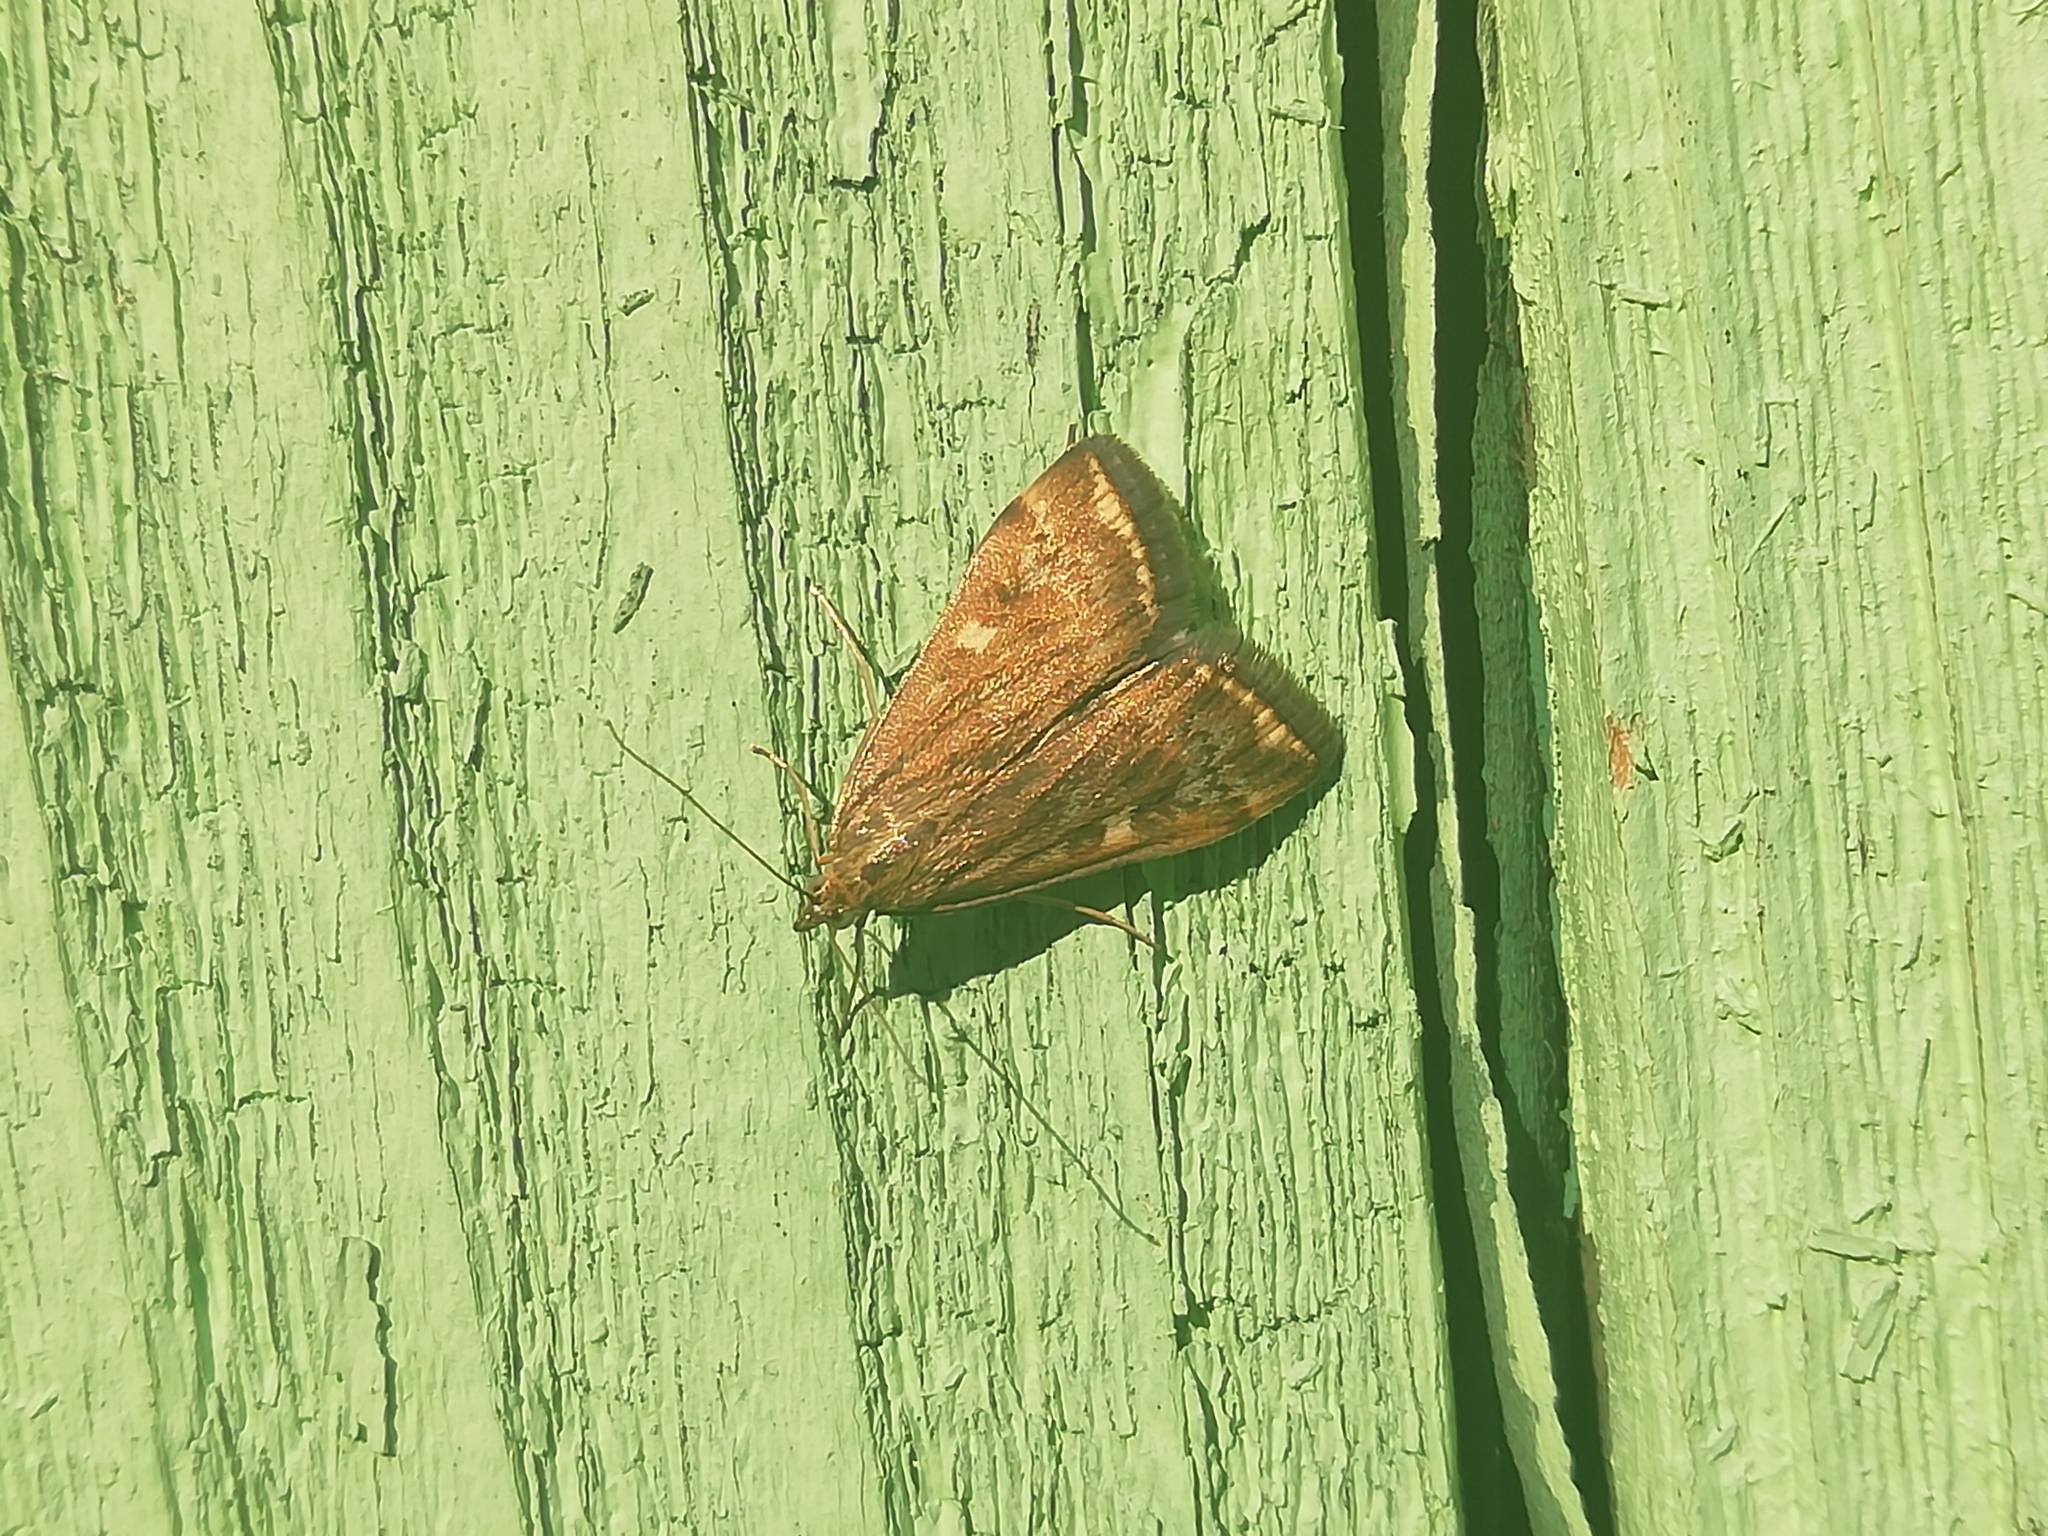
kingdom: Animalia
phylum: Arthropoda
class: Insecta
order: Lepidoptera
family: Crambidae
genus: Loxostege
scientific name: Loxostege sticticalis
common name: Crambid moth
